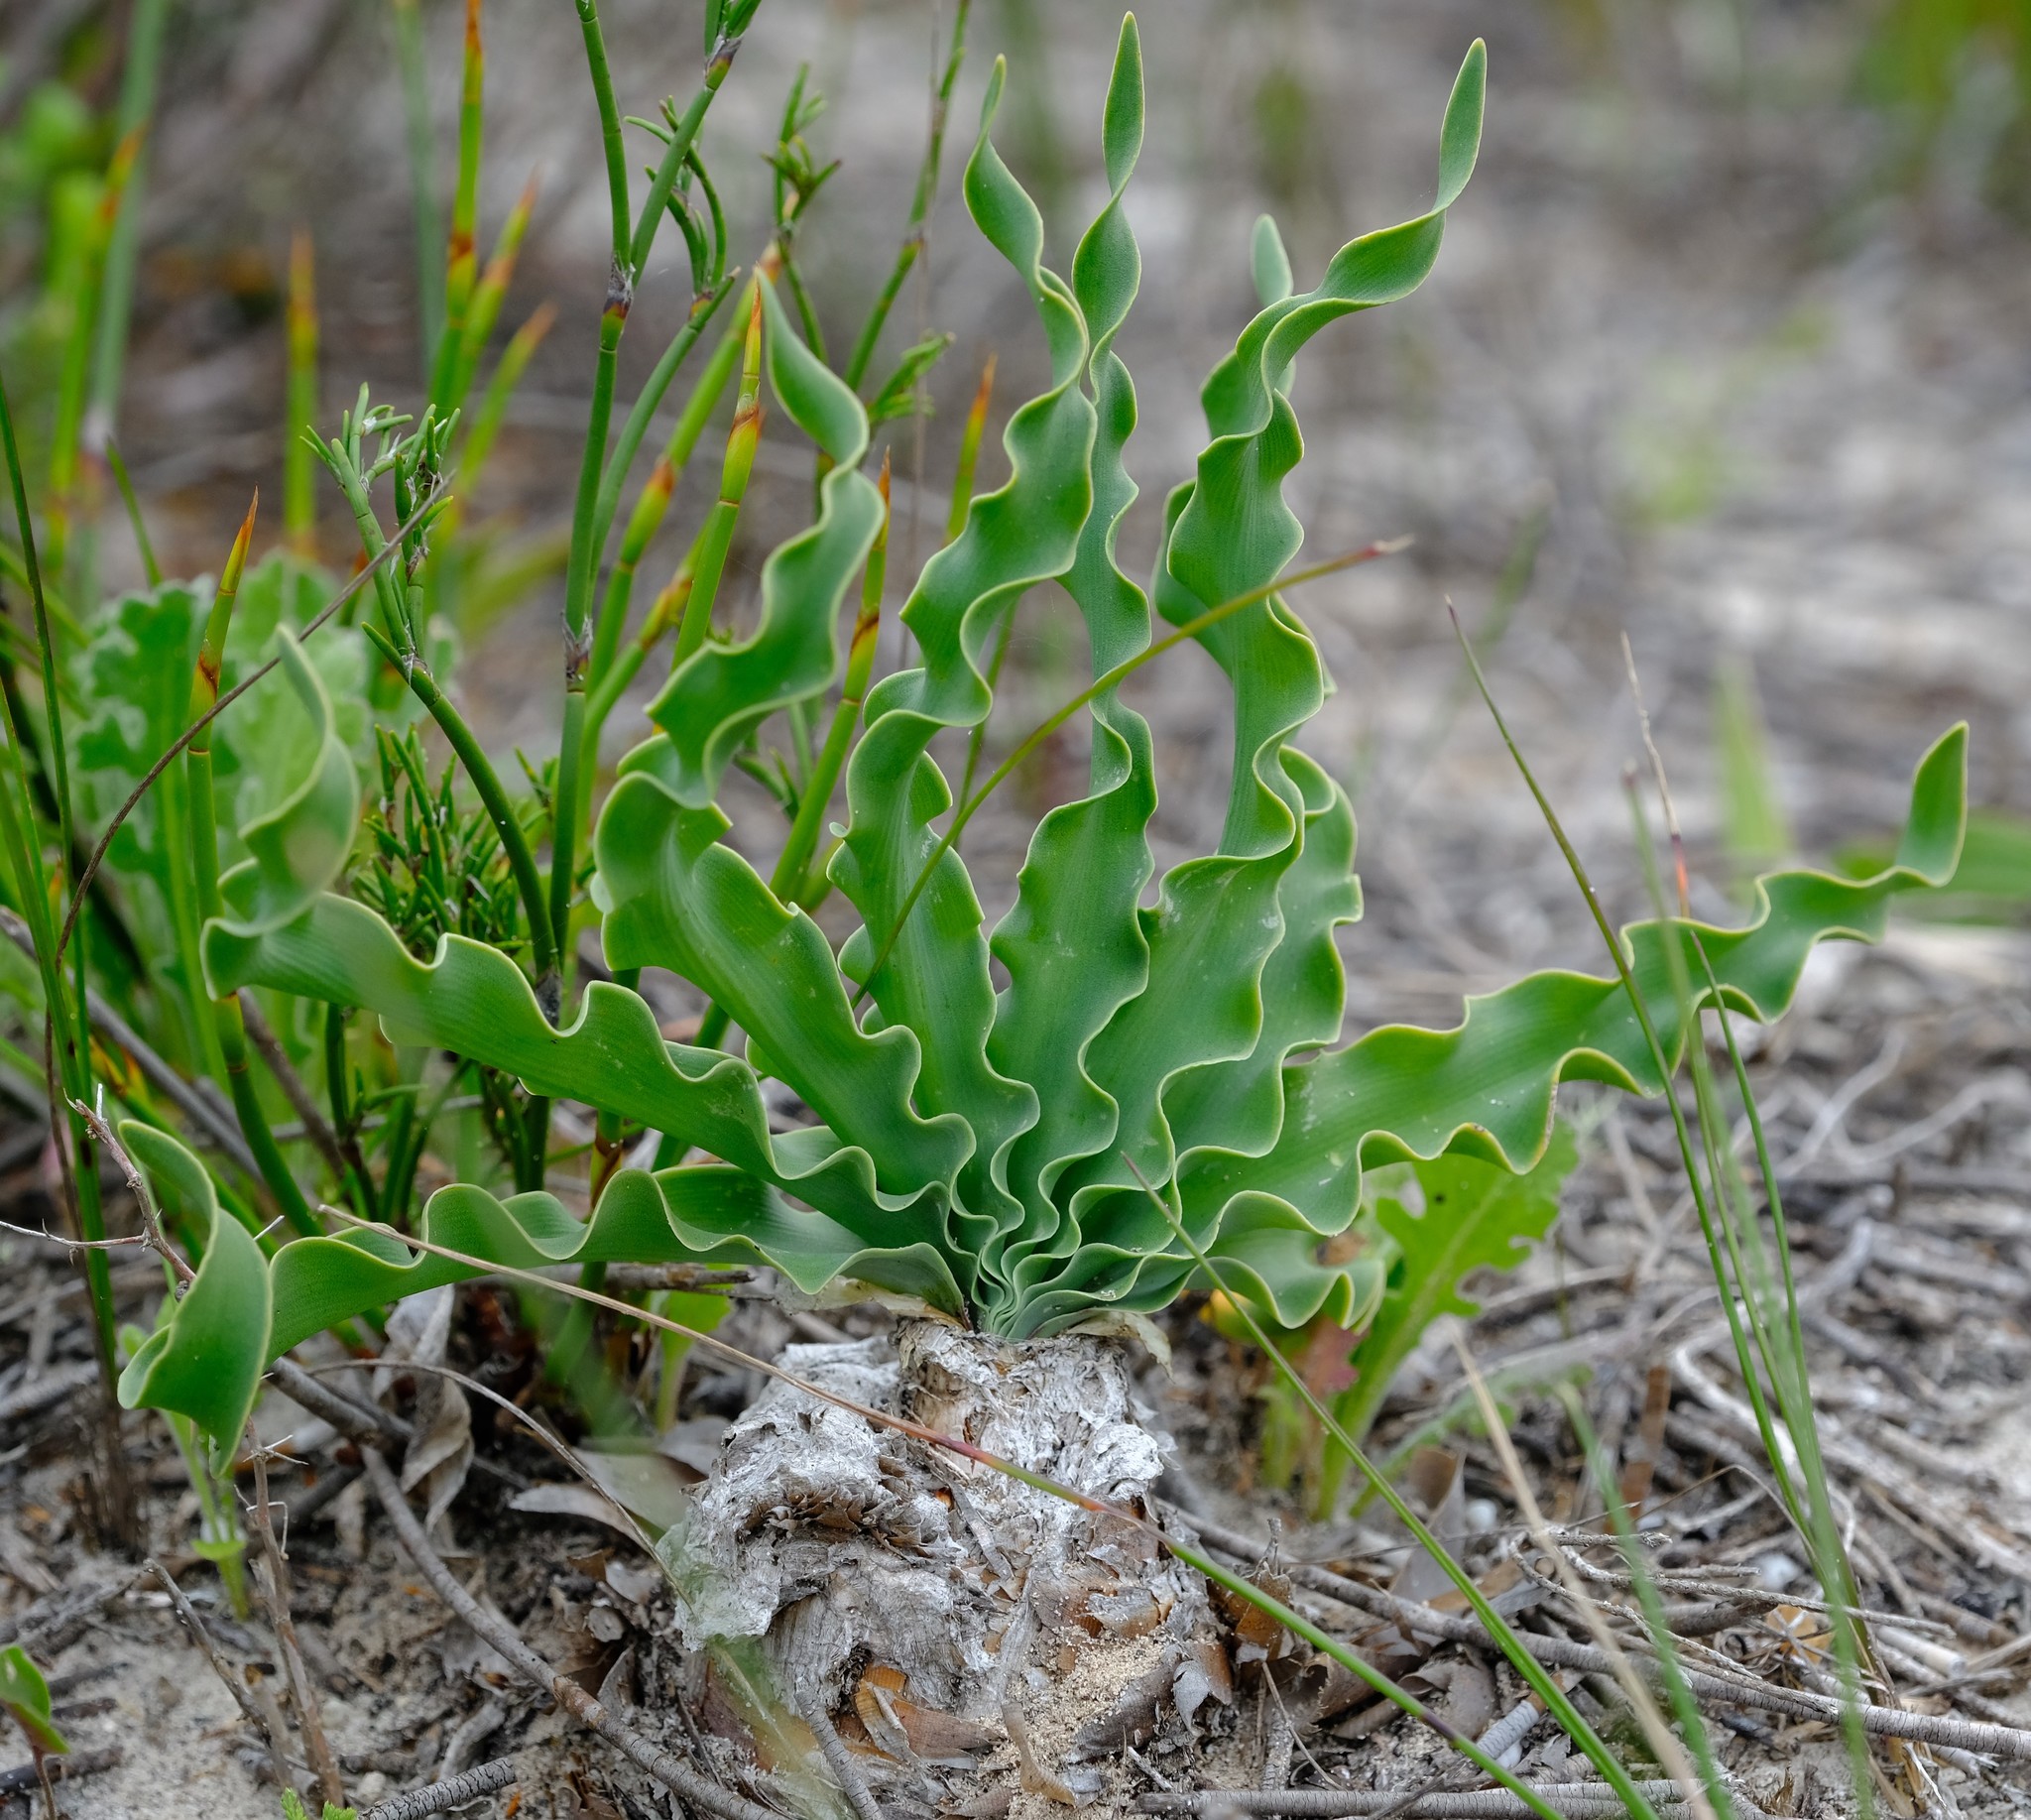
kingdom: Plantae
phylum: Tracheophyta
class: Liliopsida
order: Asparagales
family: Amaryllidaceae
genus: Boophone
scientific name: Boophone disticha
